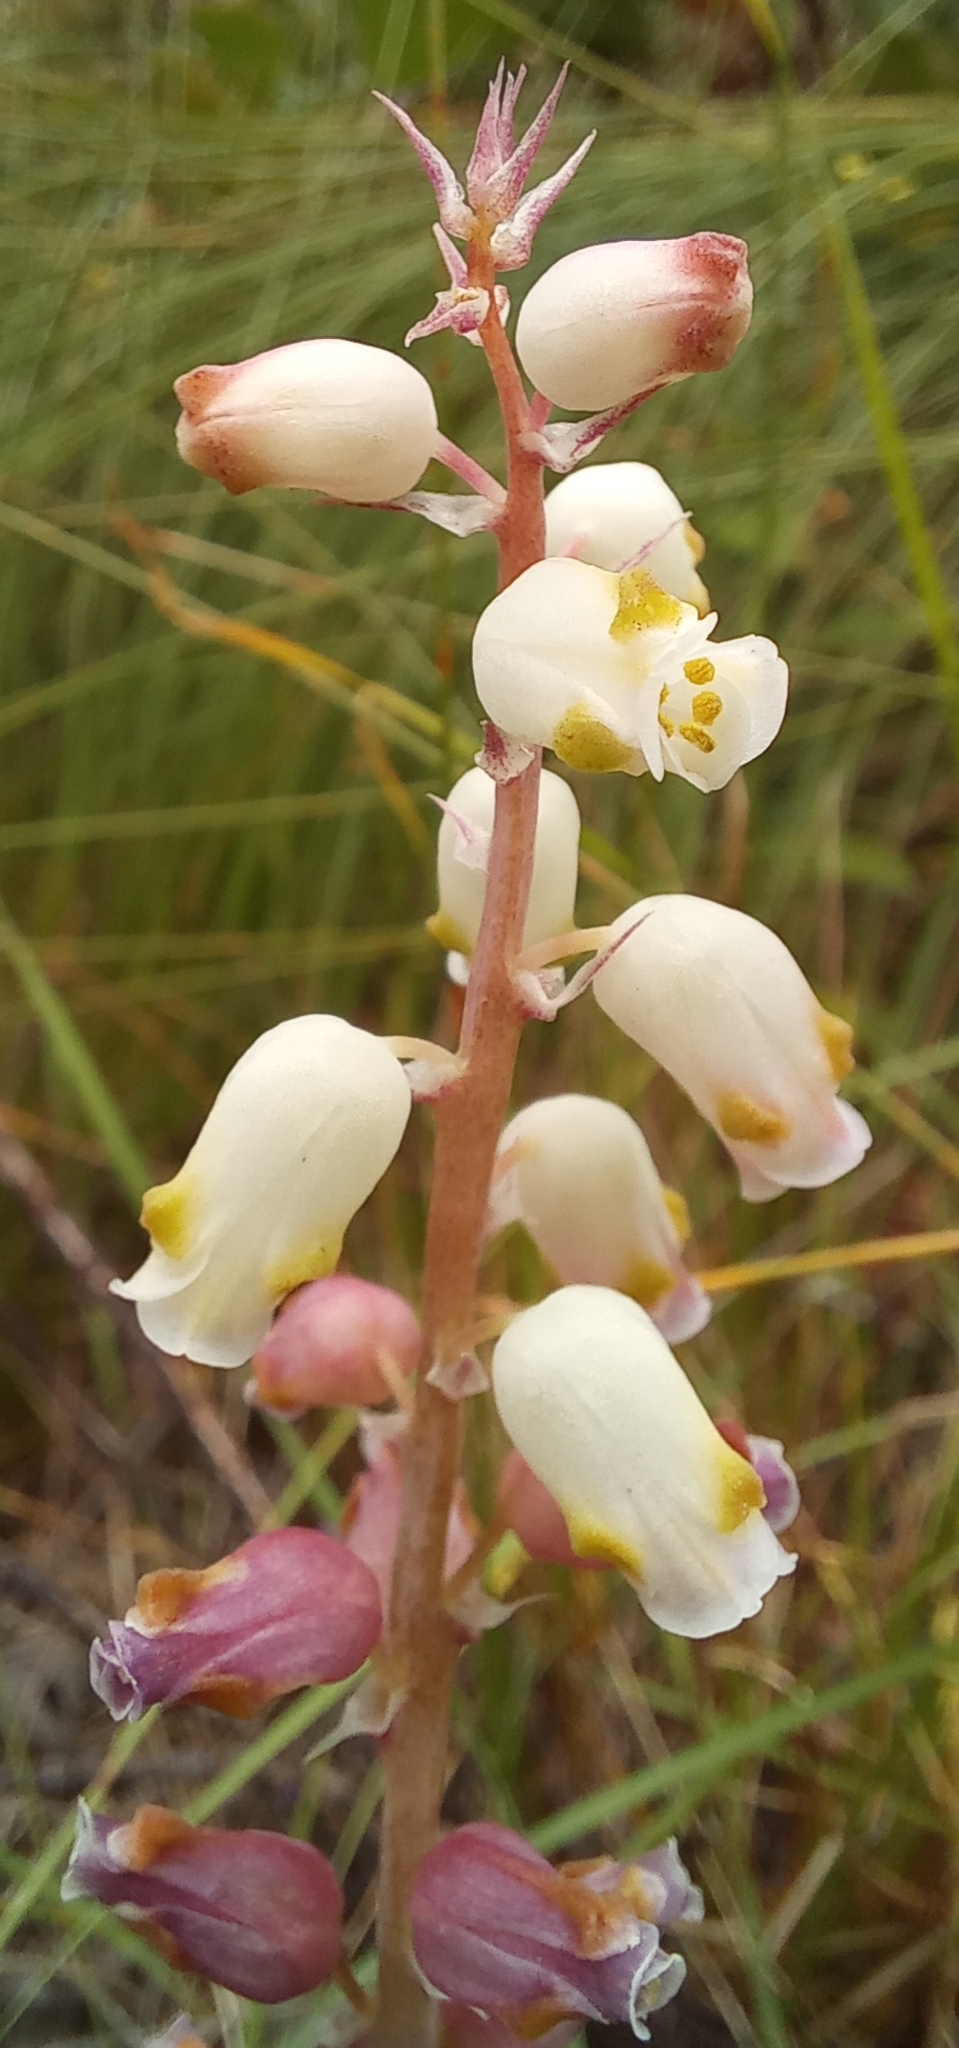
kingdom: Plantae
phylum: Tracheophyta
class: Liliopsida
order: Asparagales
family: Asparagaceae
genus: Lachenalia
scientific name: Lachenalia peersii
